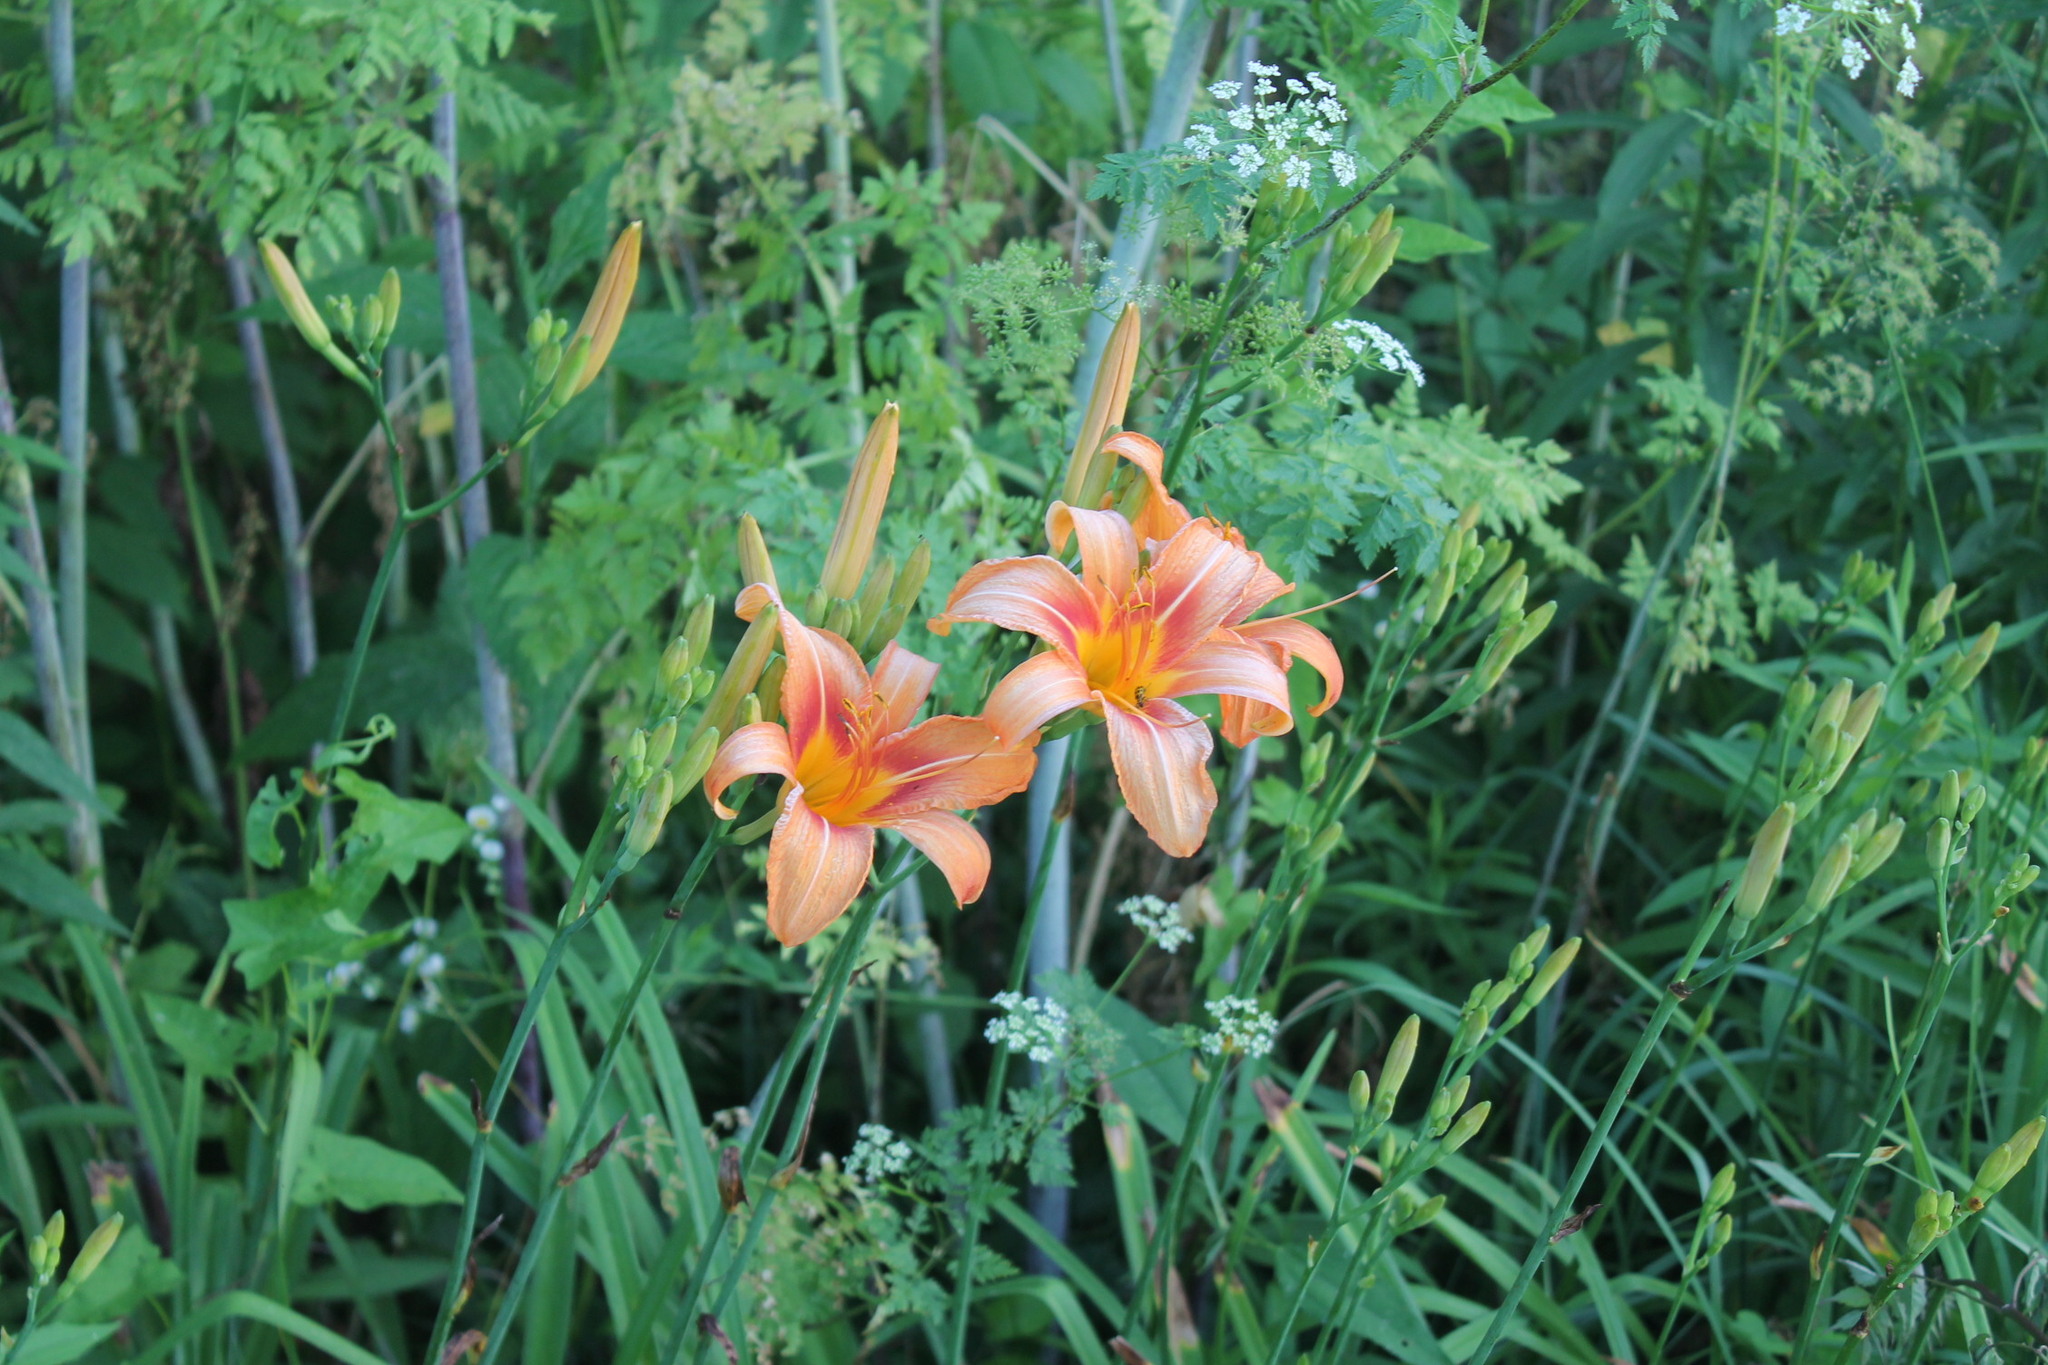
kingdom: Plantae
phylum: Tracheophyta
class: Liliopsida
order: Asparagales
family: Asphodelaceae
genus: Hemerocallis
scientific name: Hemerocallis fulva
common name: Orange day-lily
